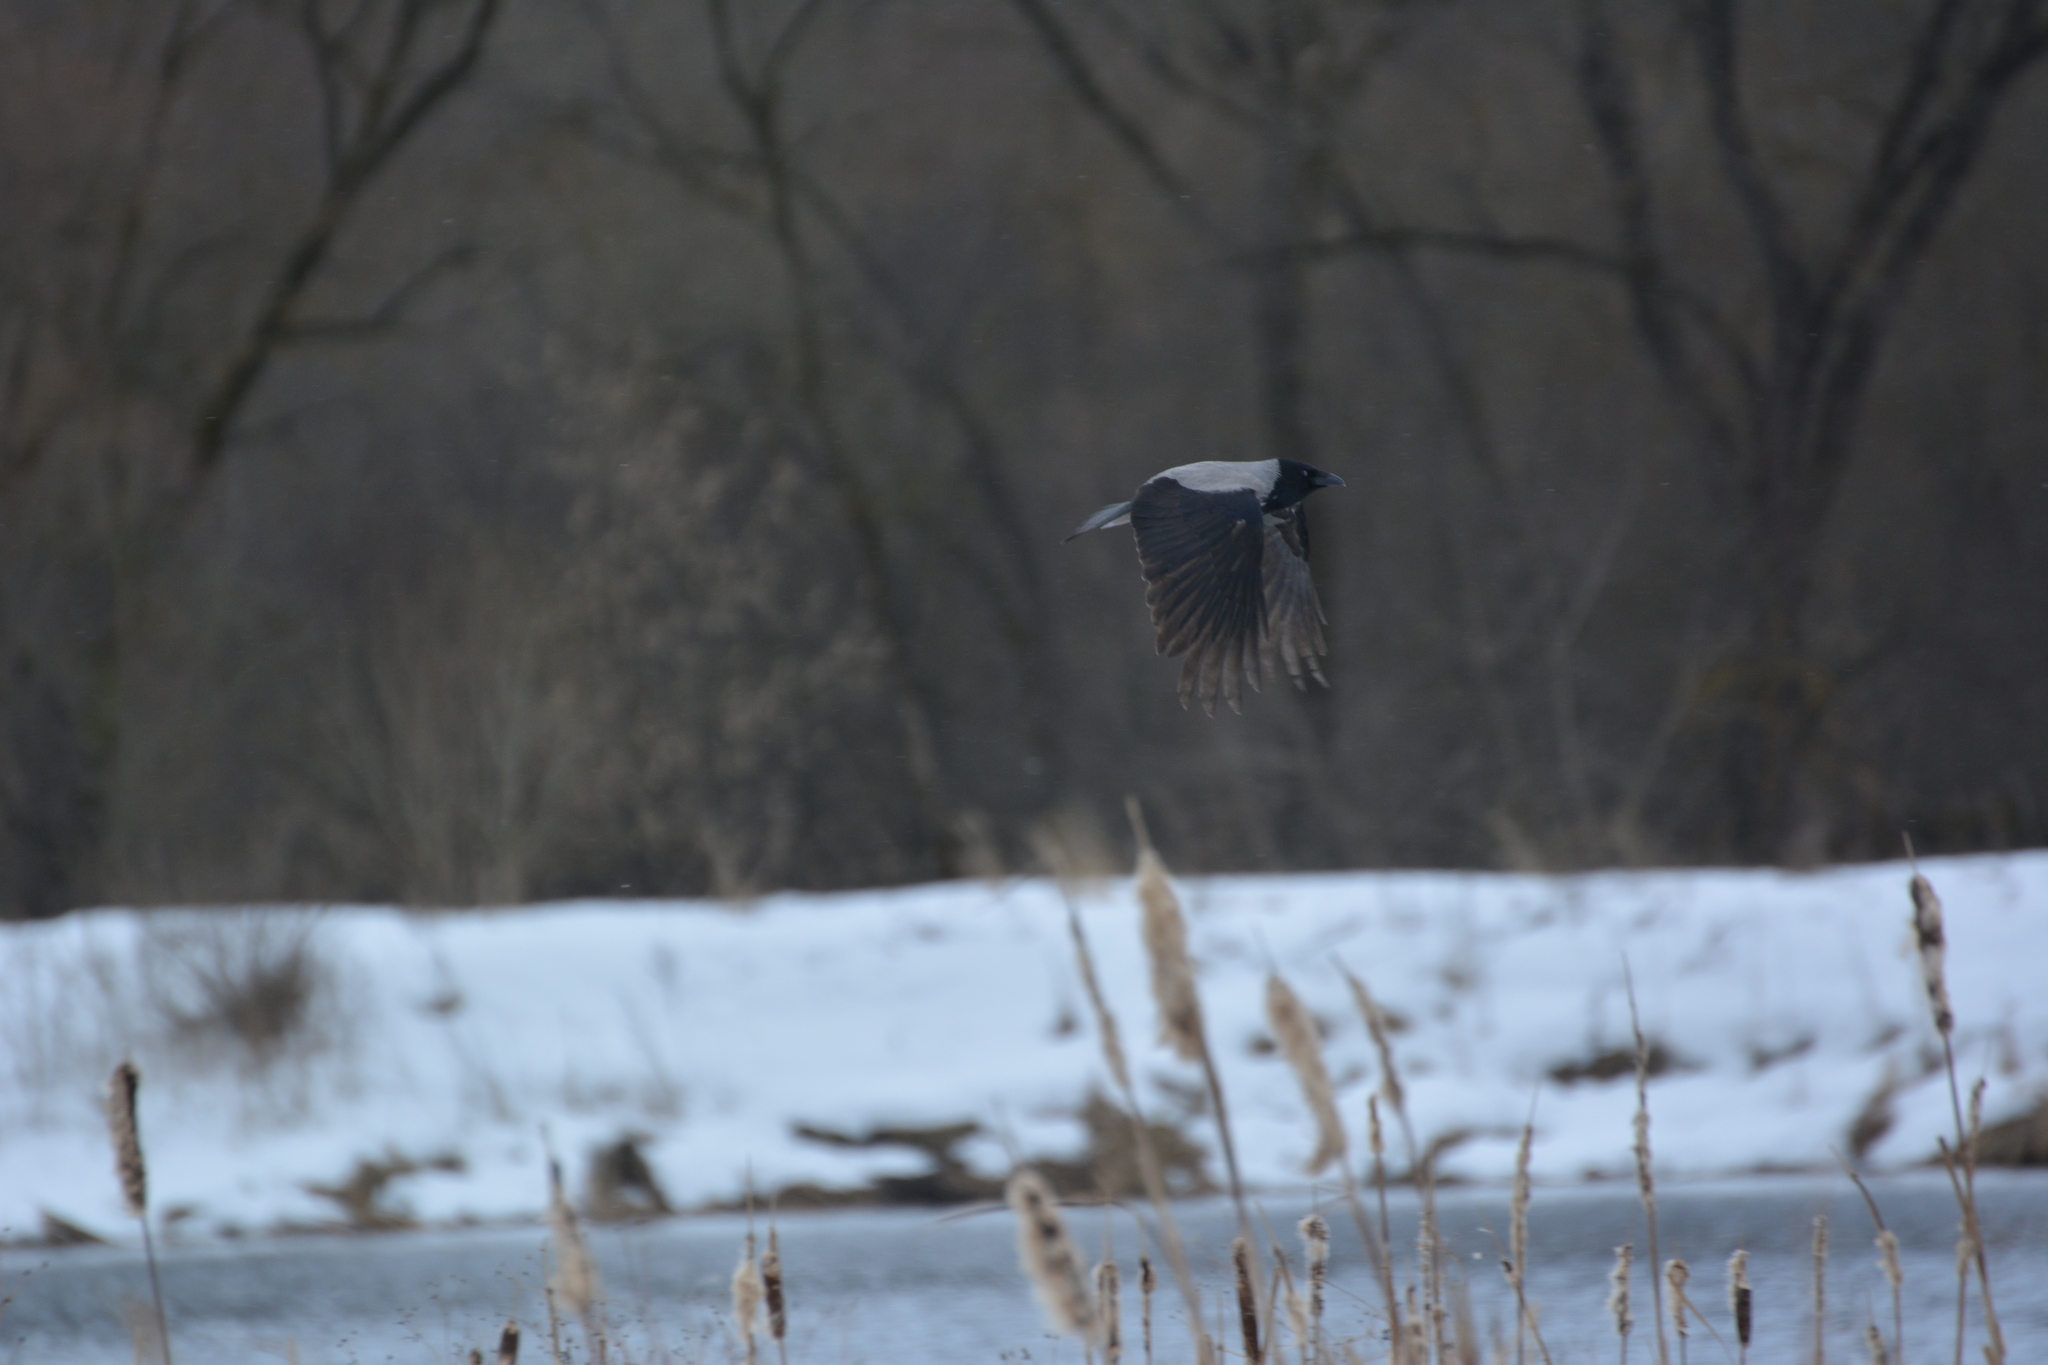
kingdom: Animalia
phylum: Chordata
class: Aves
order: Passeriformes
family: Corvidae
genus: Corvus
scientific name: Corvus cornix
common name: Hooded crow
